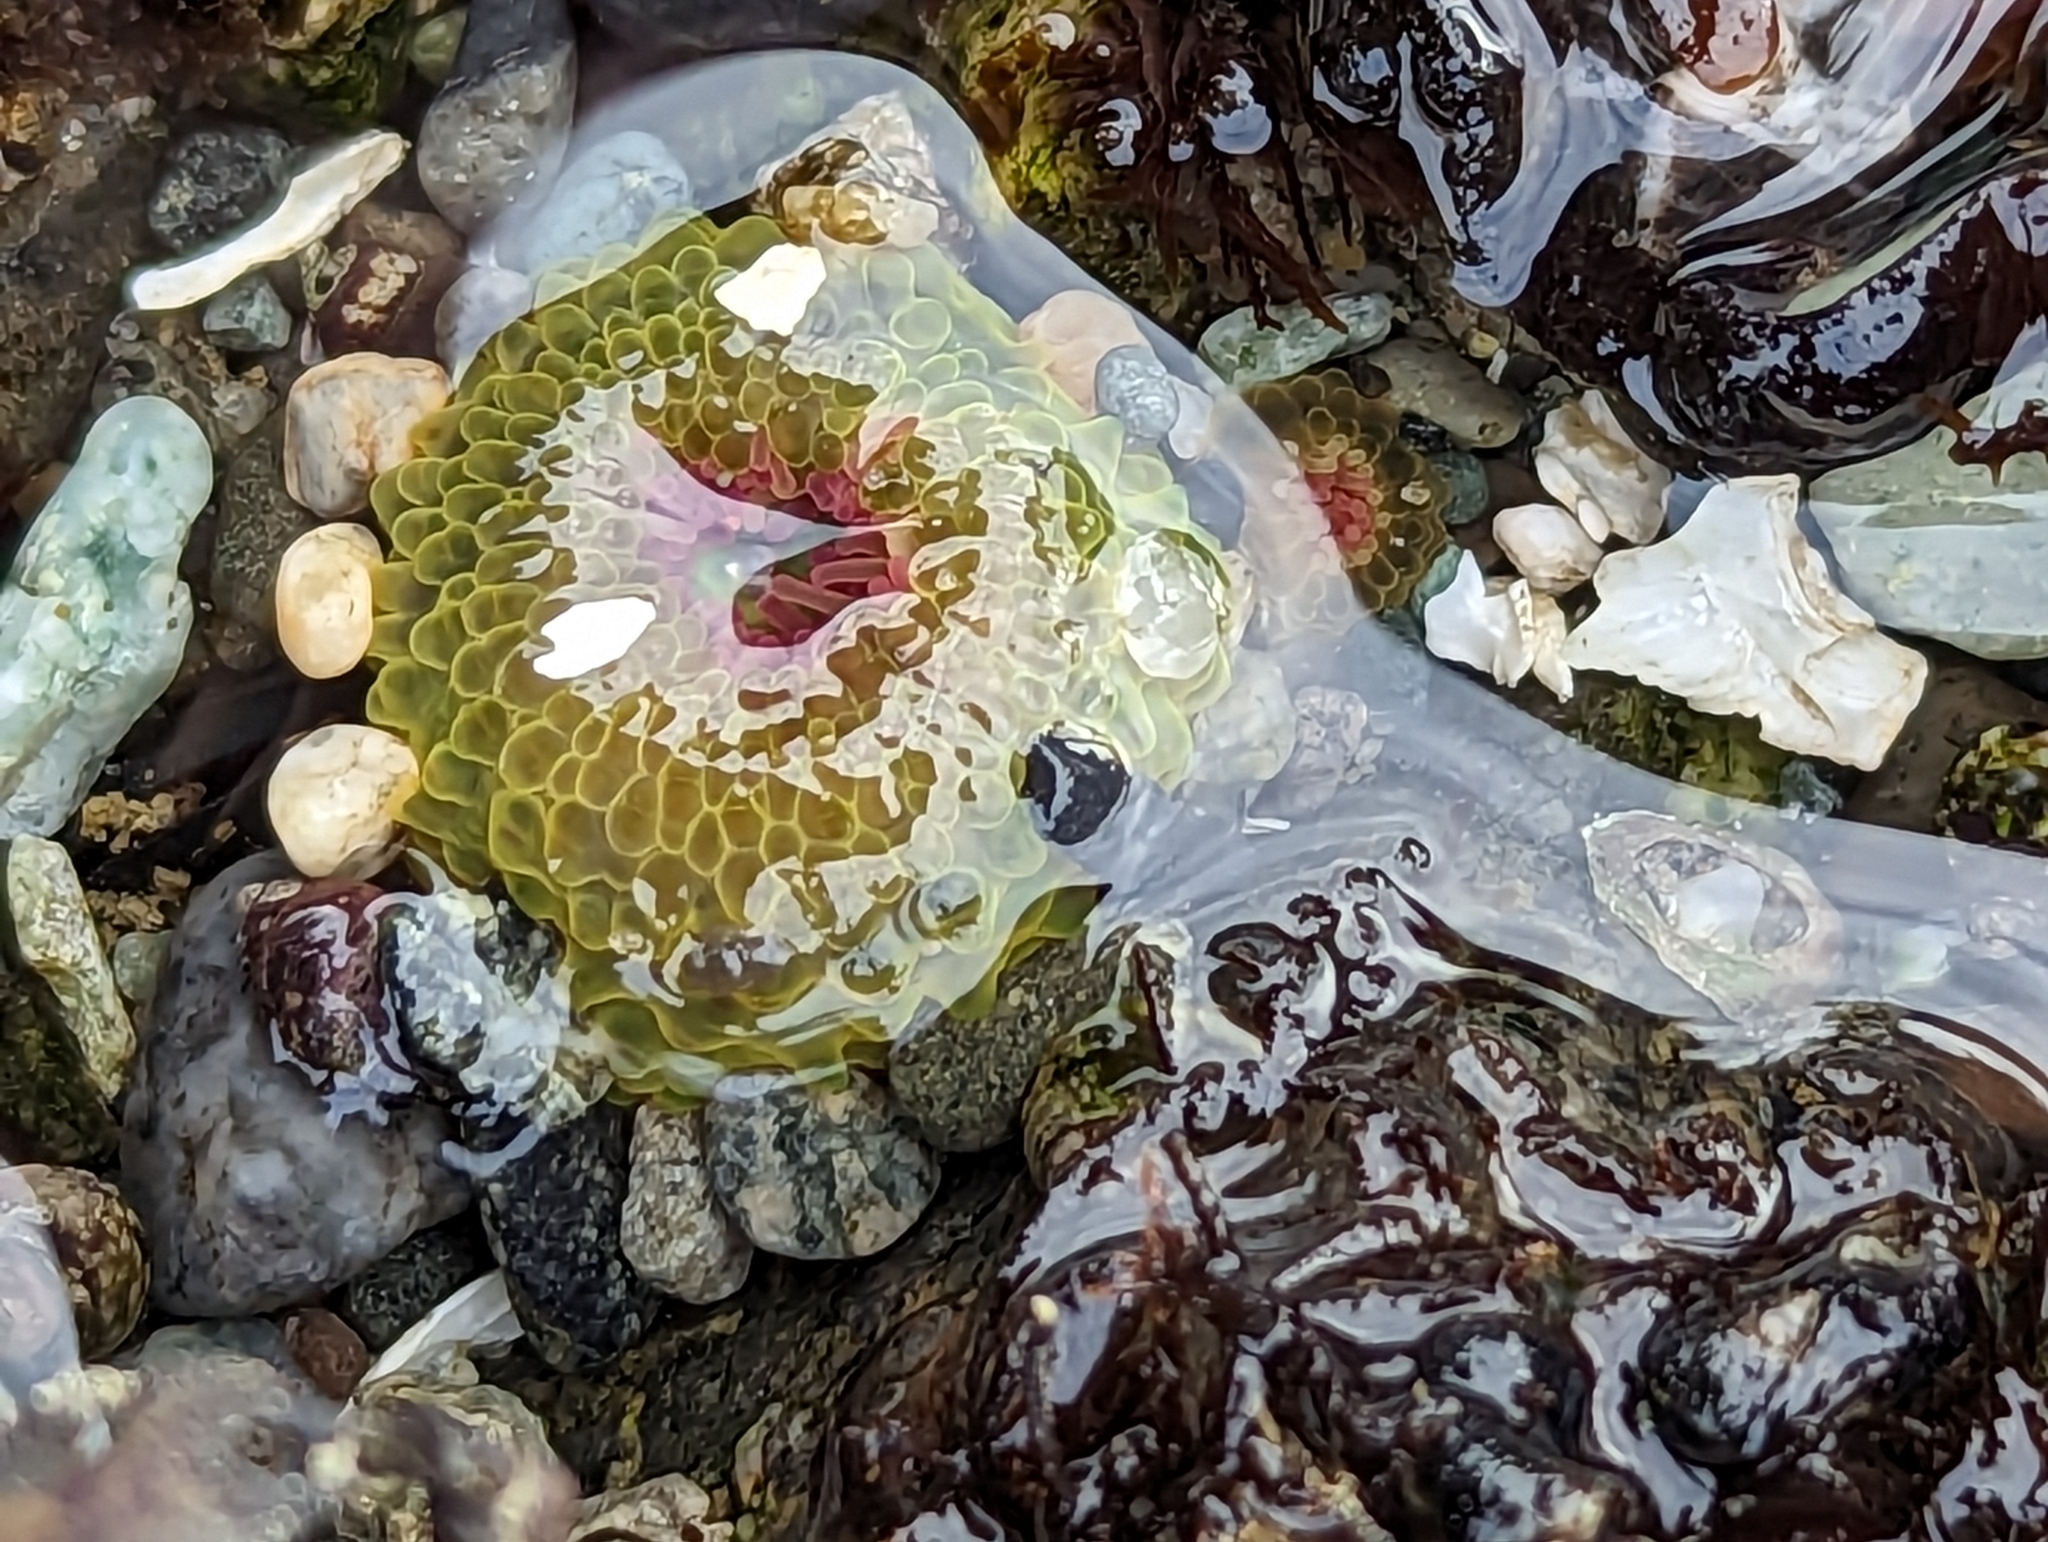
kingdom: Animalia
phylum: Cnidaria
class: Anthozoa
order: Actiniaria
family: Actiniidae
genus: Anthopleura
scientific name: Anthopleura elegantissima
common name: Clonal anemone
